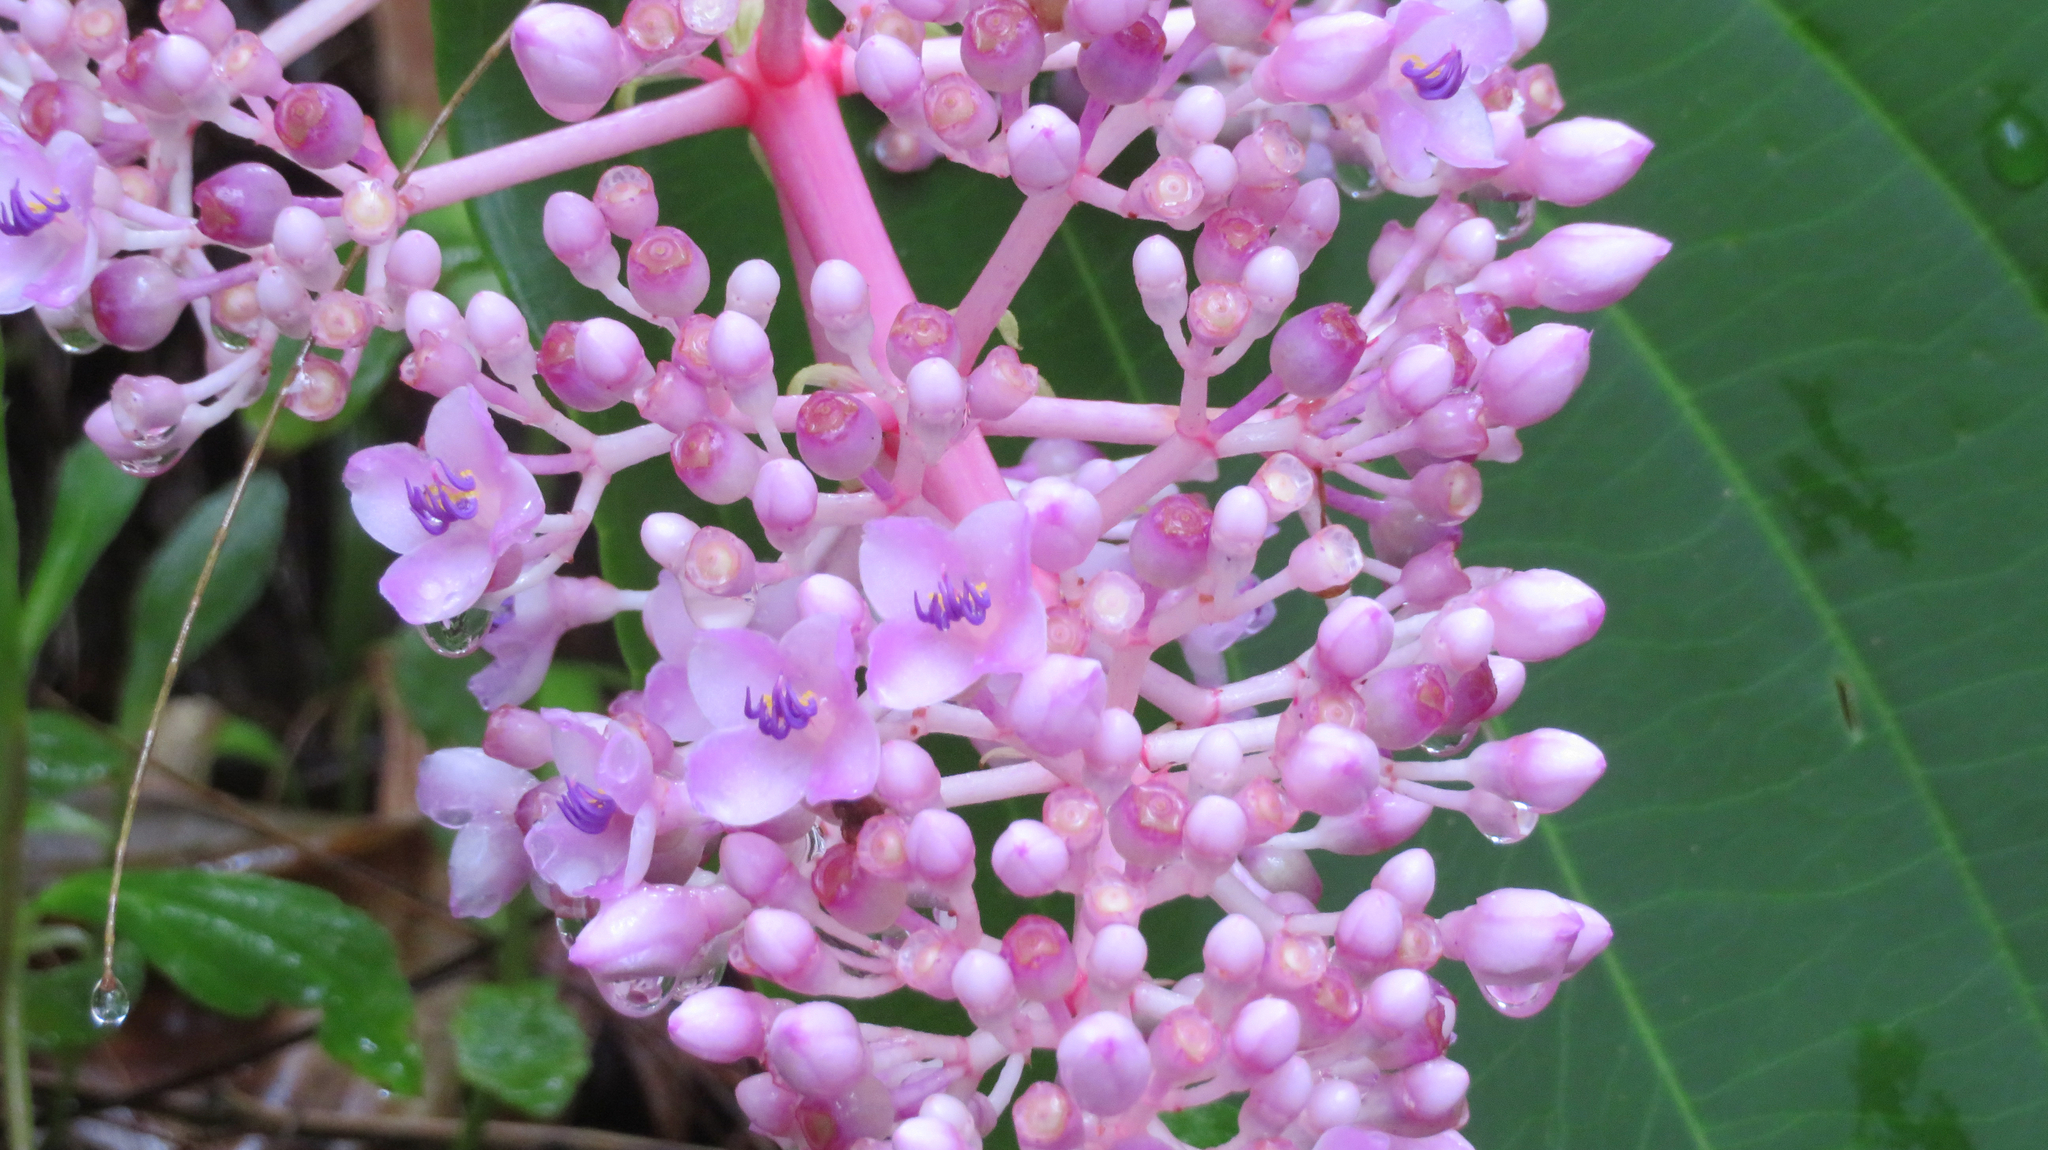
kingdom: Plantae
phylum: Tracheophyta
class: Magnoliopsida
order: Myrtales
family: Melastomataceae
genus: Medinilla
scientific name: Medinilla cumingii
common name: Chandelier tree
